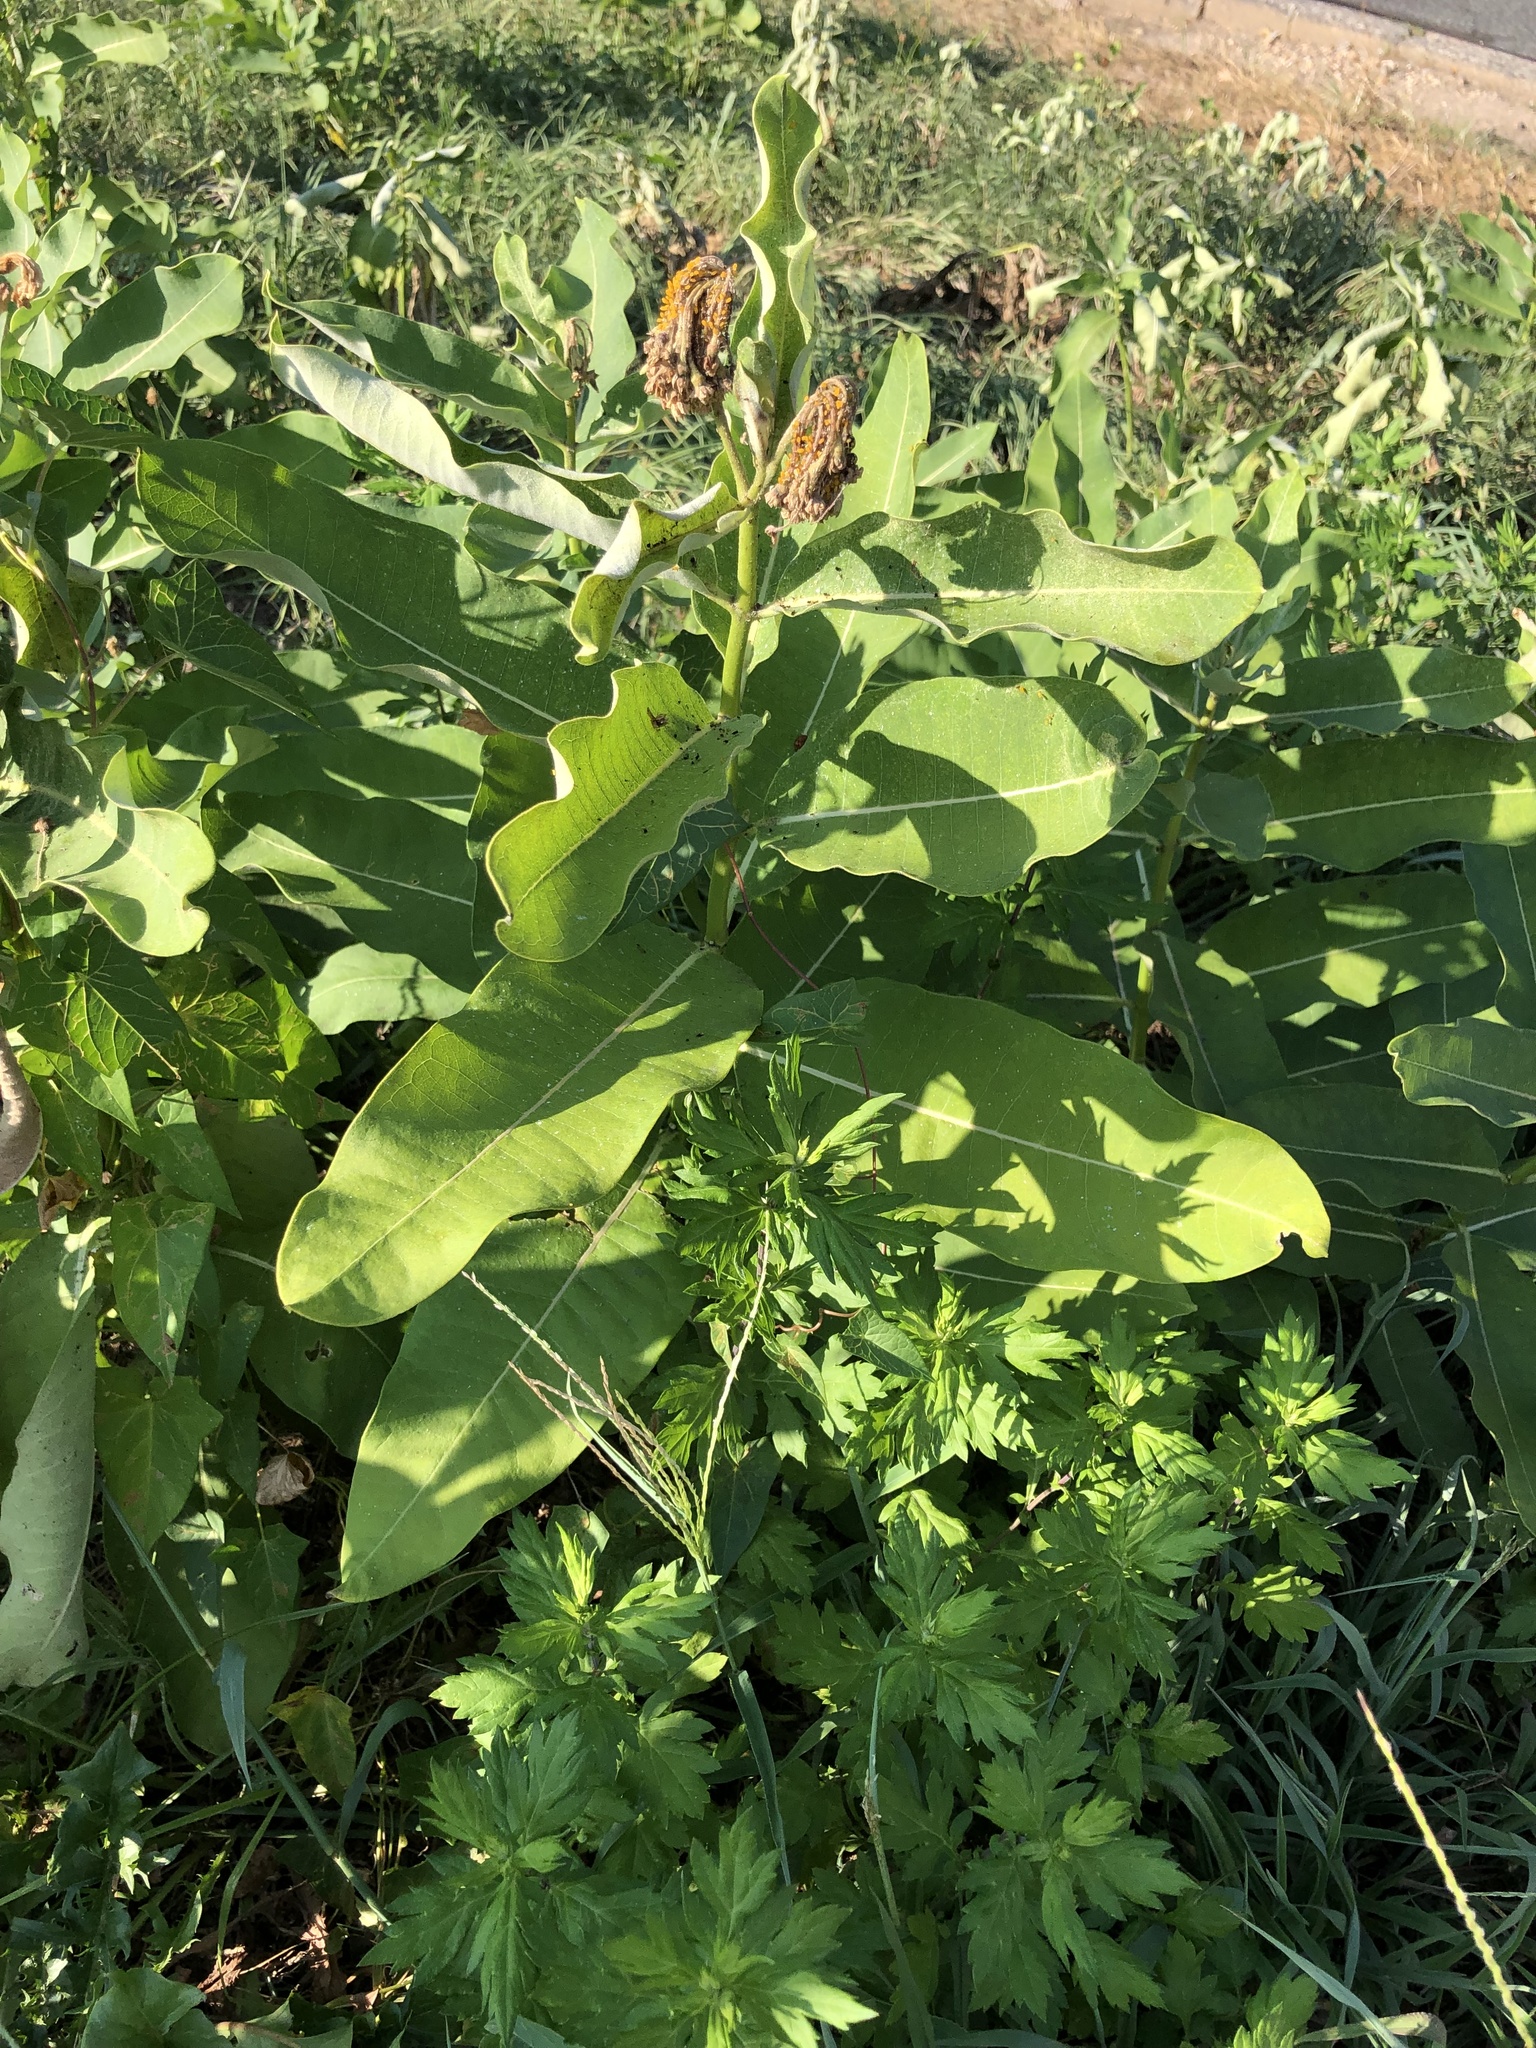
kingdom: Plantae
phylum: Tracheophyta
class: Magnoliopsida
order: Gentianales
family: Apocynaceae
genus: Asclepias
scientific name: Asclepias syriaca
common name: Common milkweed
